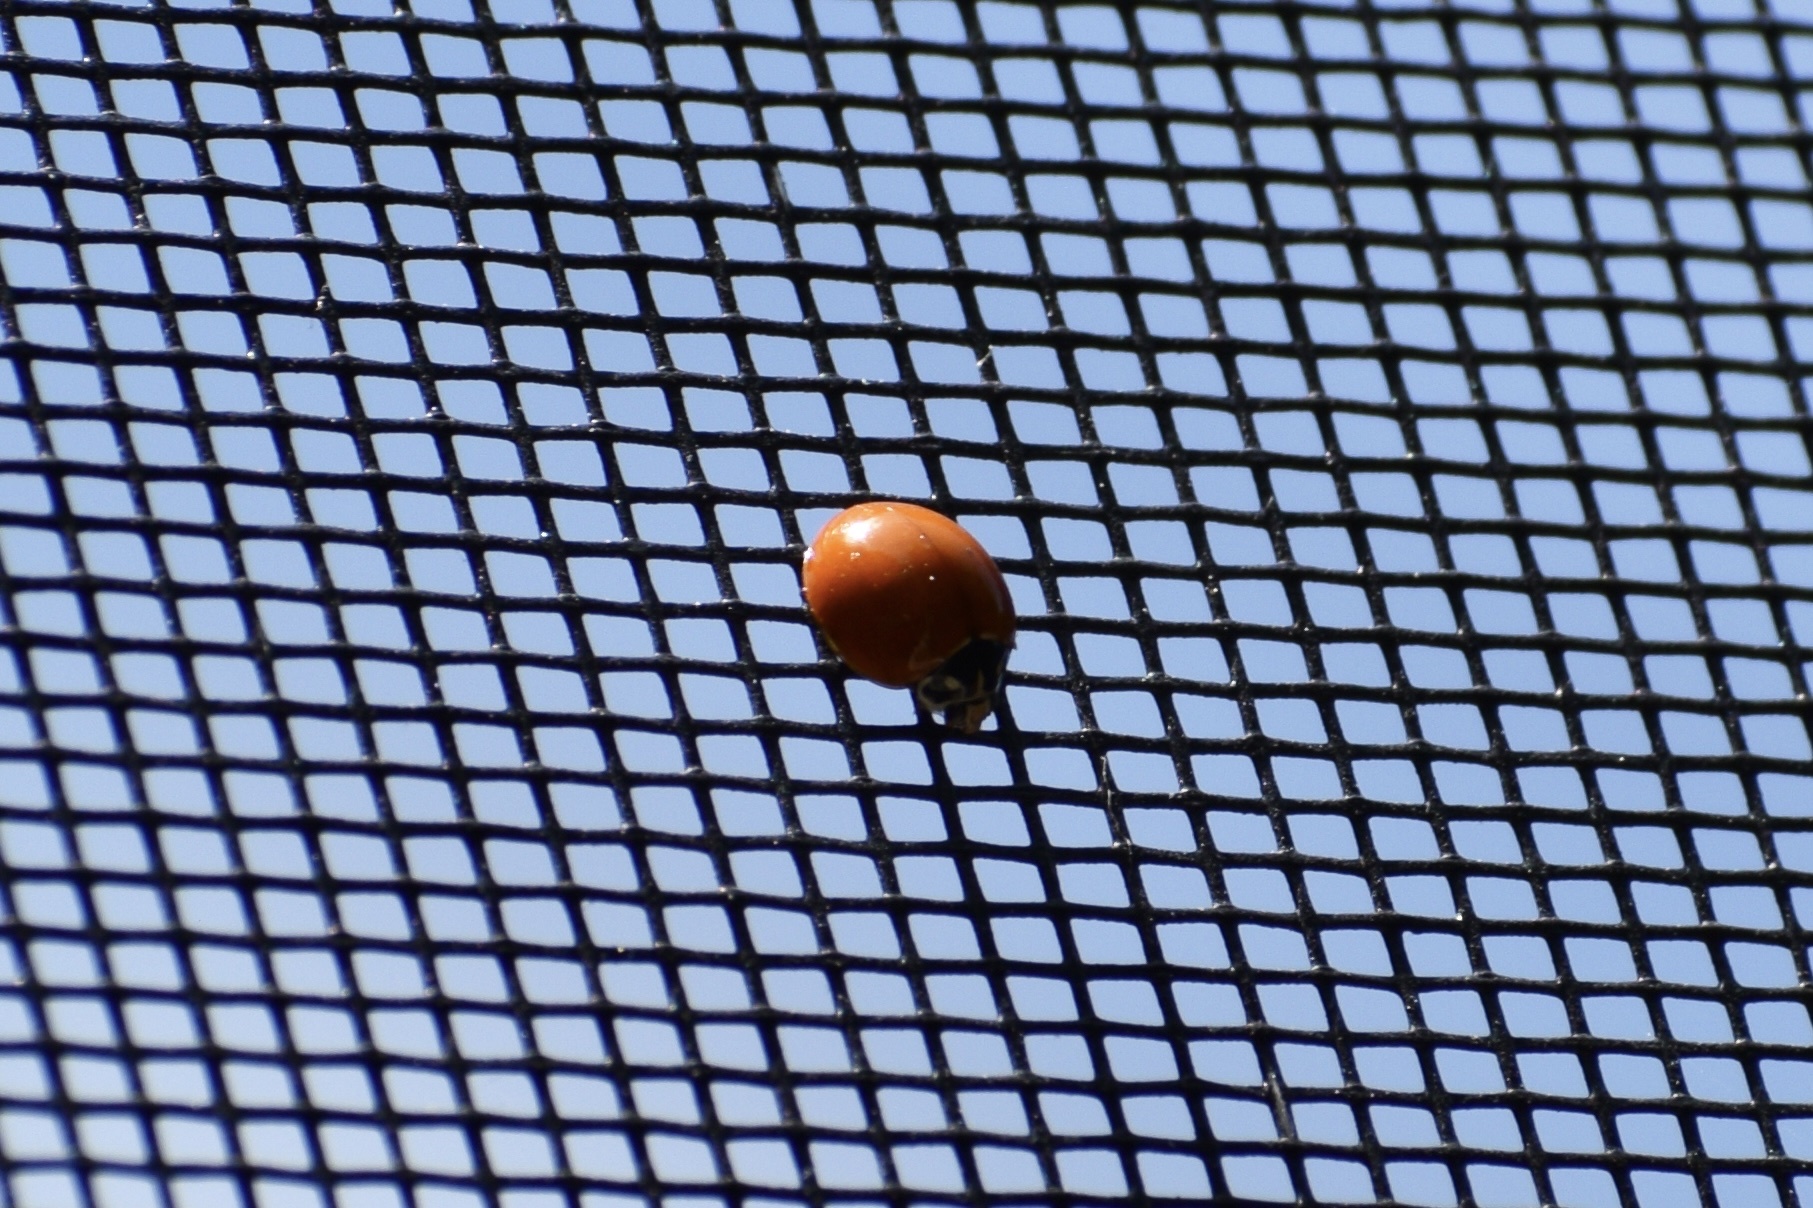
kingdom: Animalia
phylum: Arthropoda
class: Insecta
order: Coleoptera
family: Coccinellidae
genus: Cycloneda
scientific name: Cycloneda sanguinea
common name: Ladybird beetle
